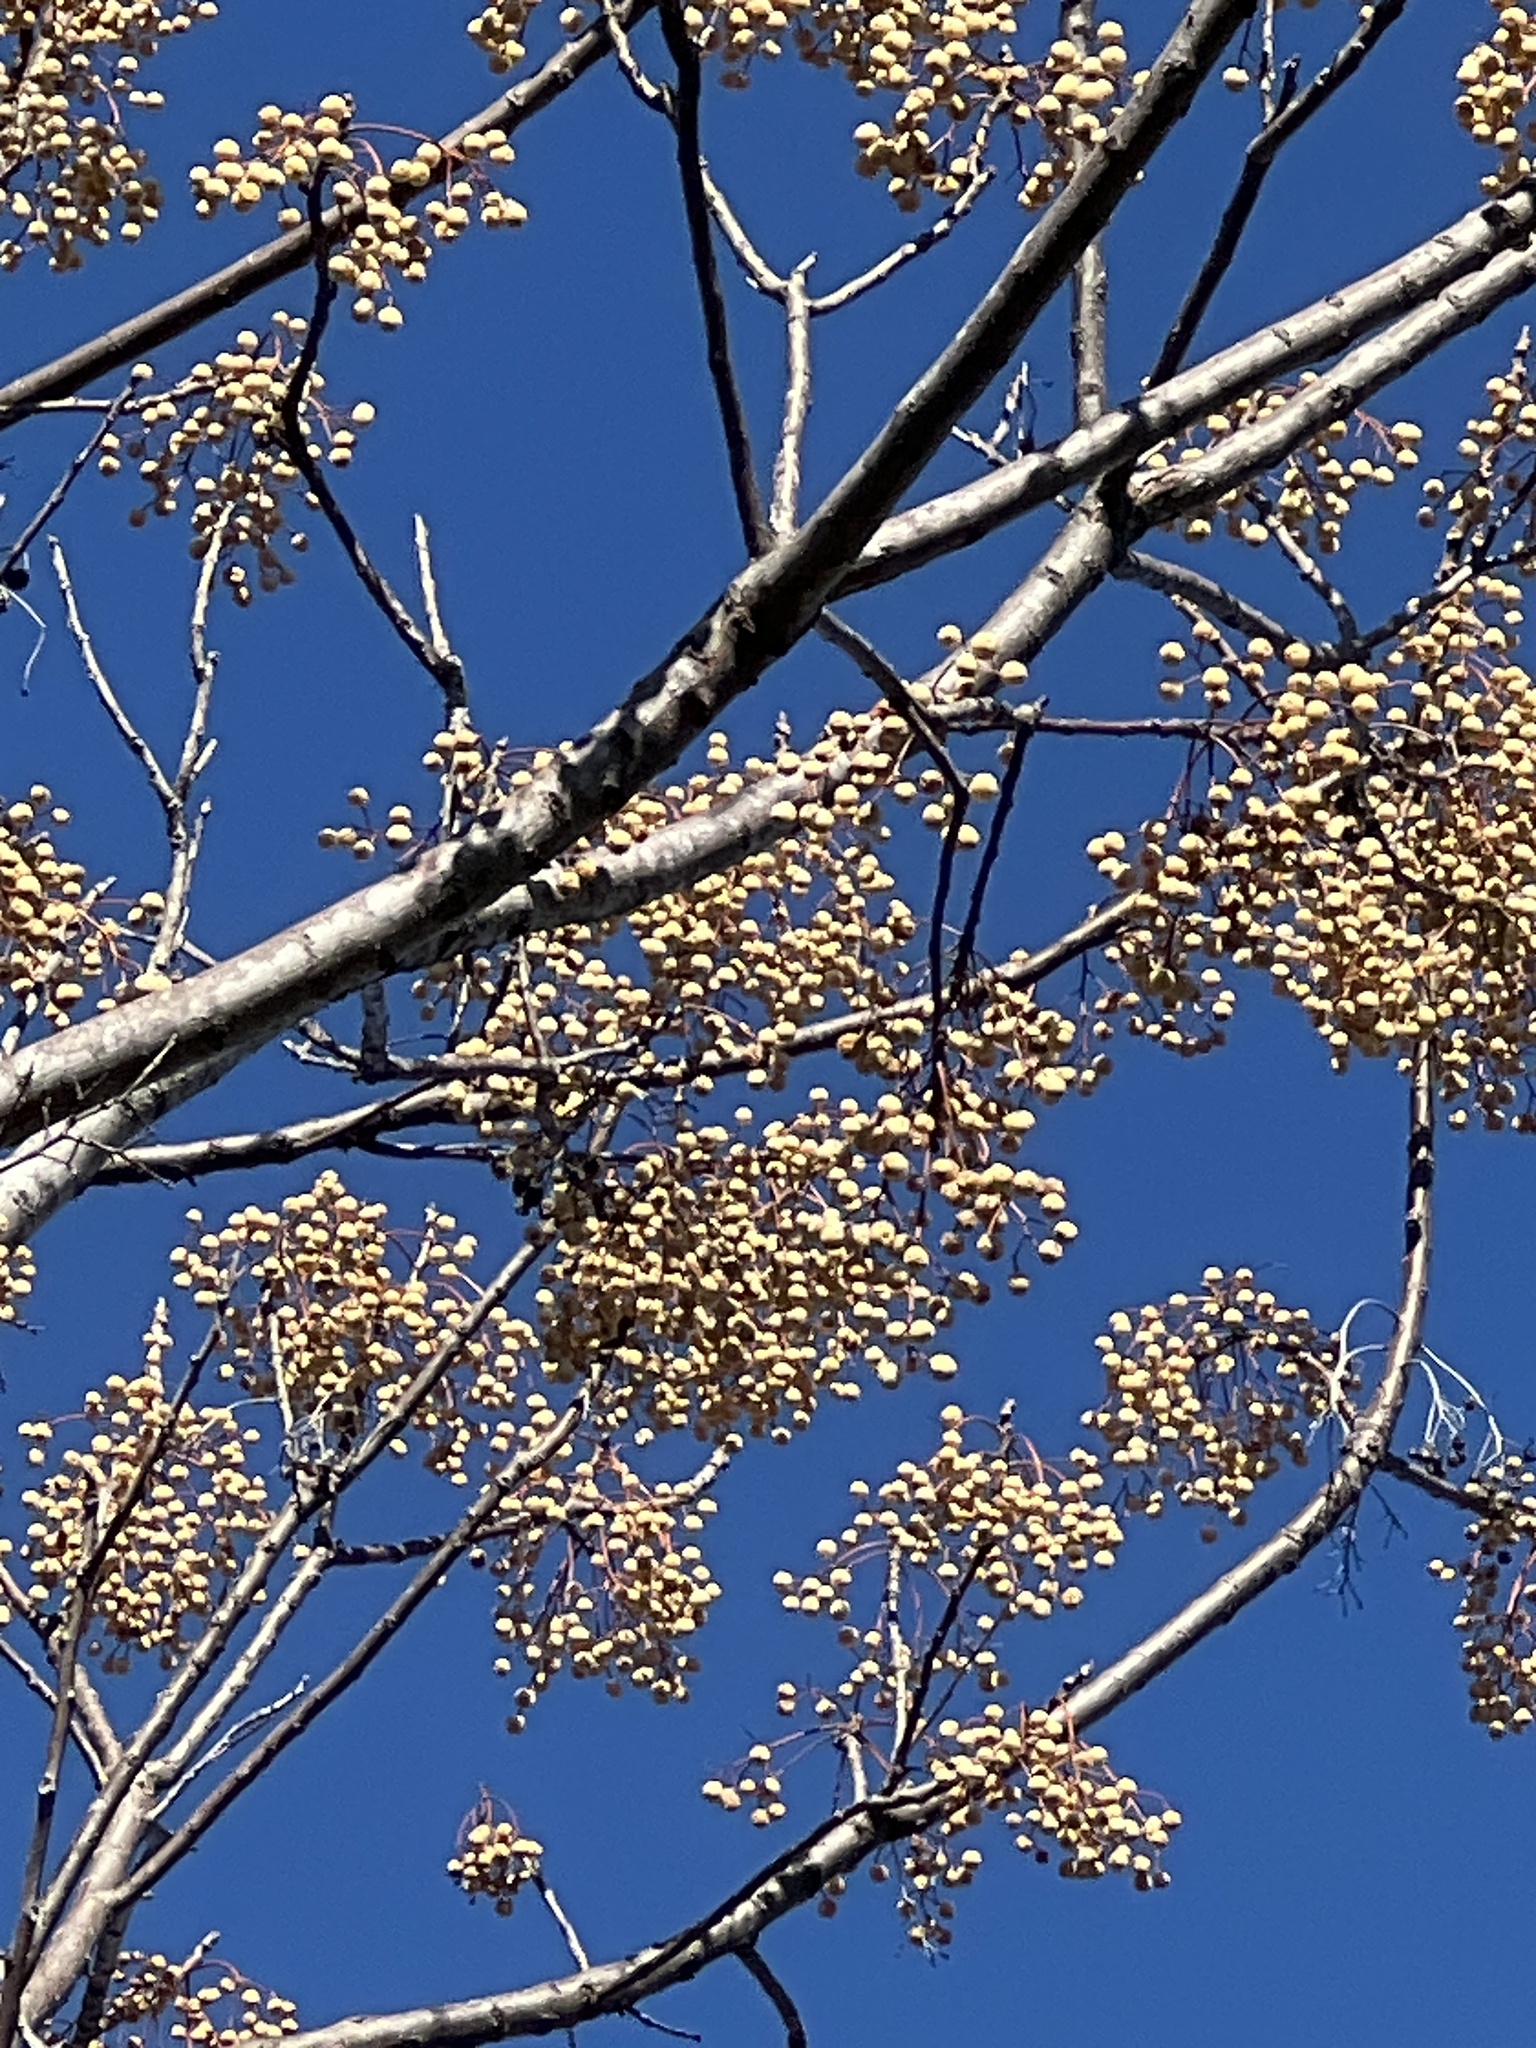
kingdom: Plantae
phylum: Tracheophyta
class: Magnoliopsida
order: Sapindales
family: Meliaceae
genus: Melia
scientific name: Melia azedarach
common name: Chinaberrytree
